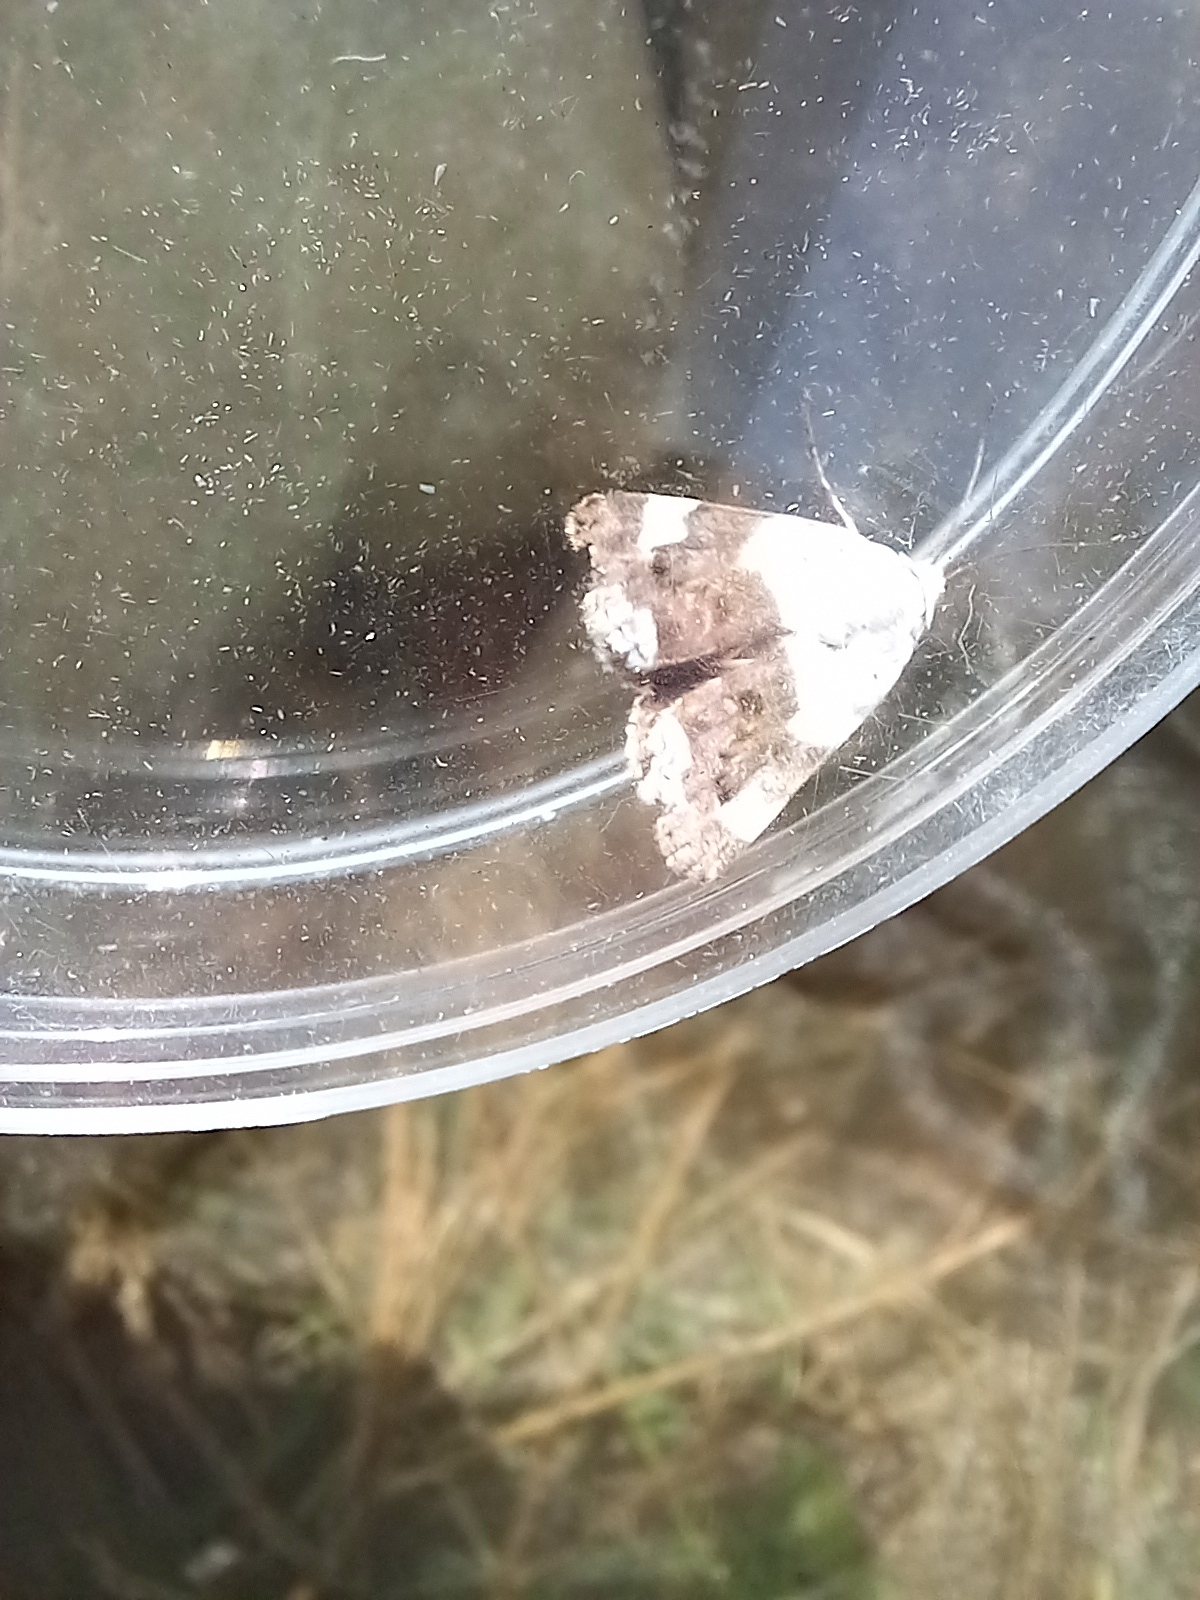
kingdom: Animalia
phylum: Arthropoda
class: Insecta
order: Lepidoptera
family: Noctuidae
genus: Acontia
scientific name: Acontia lucida
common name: Pale shoulder
